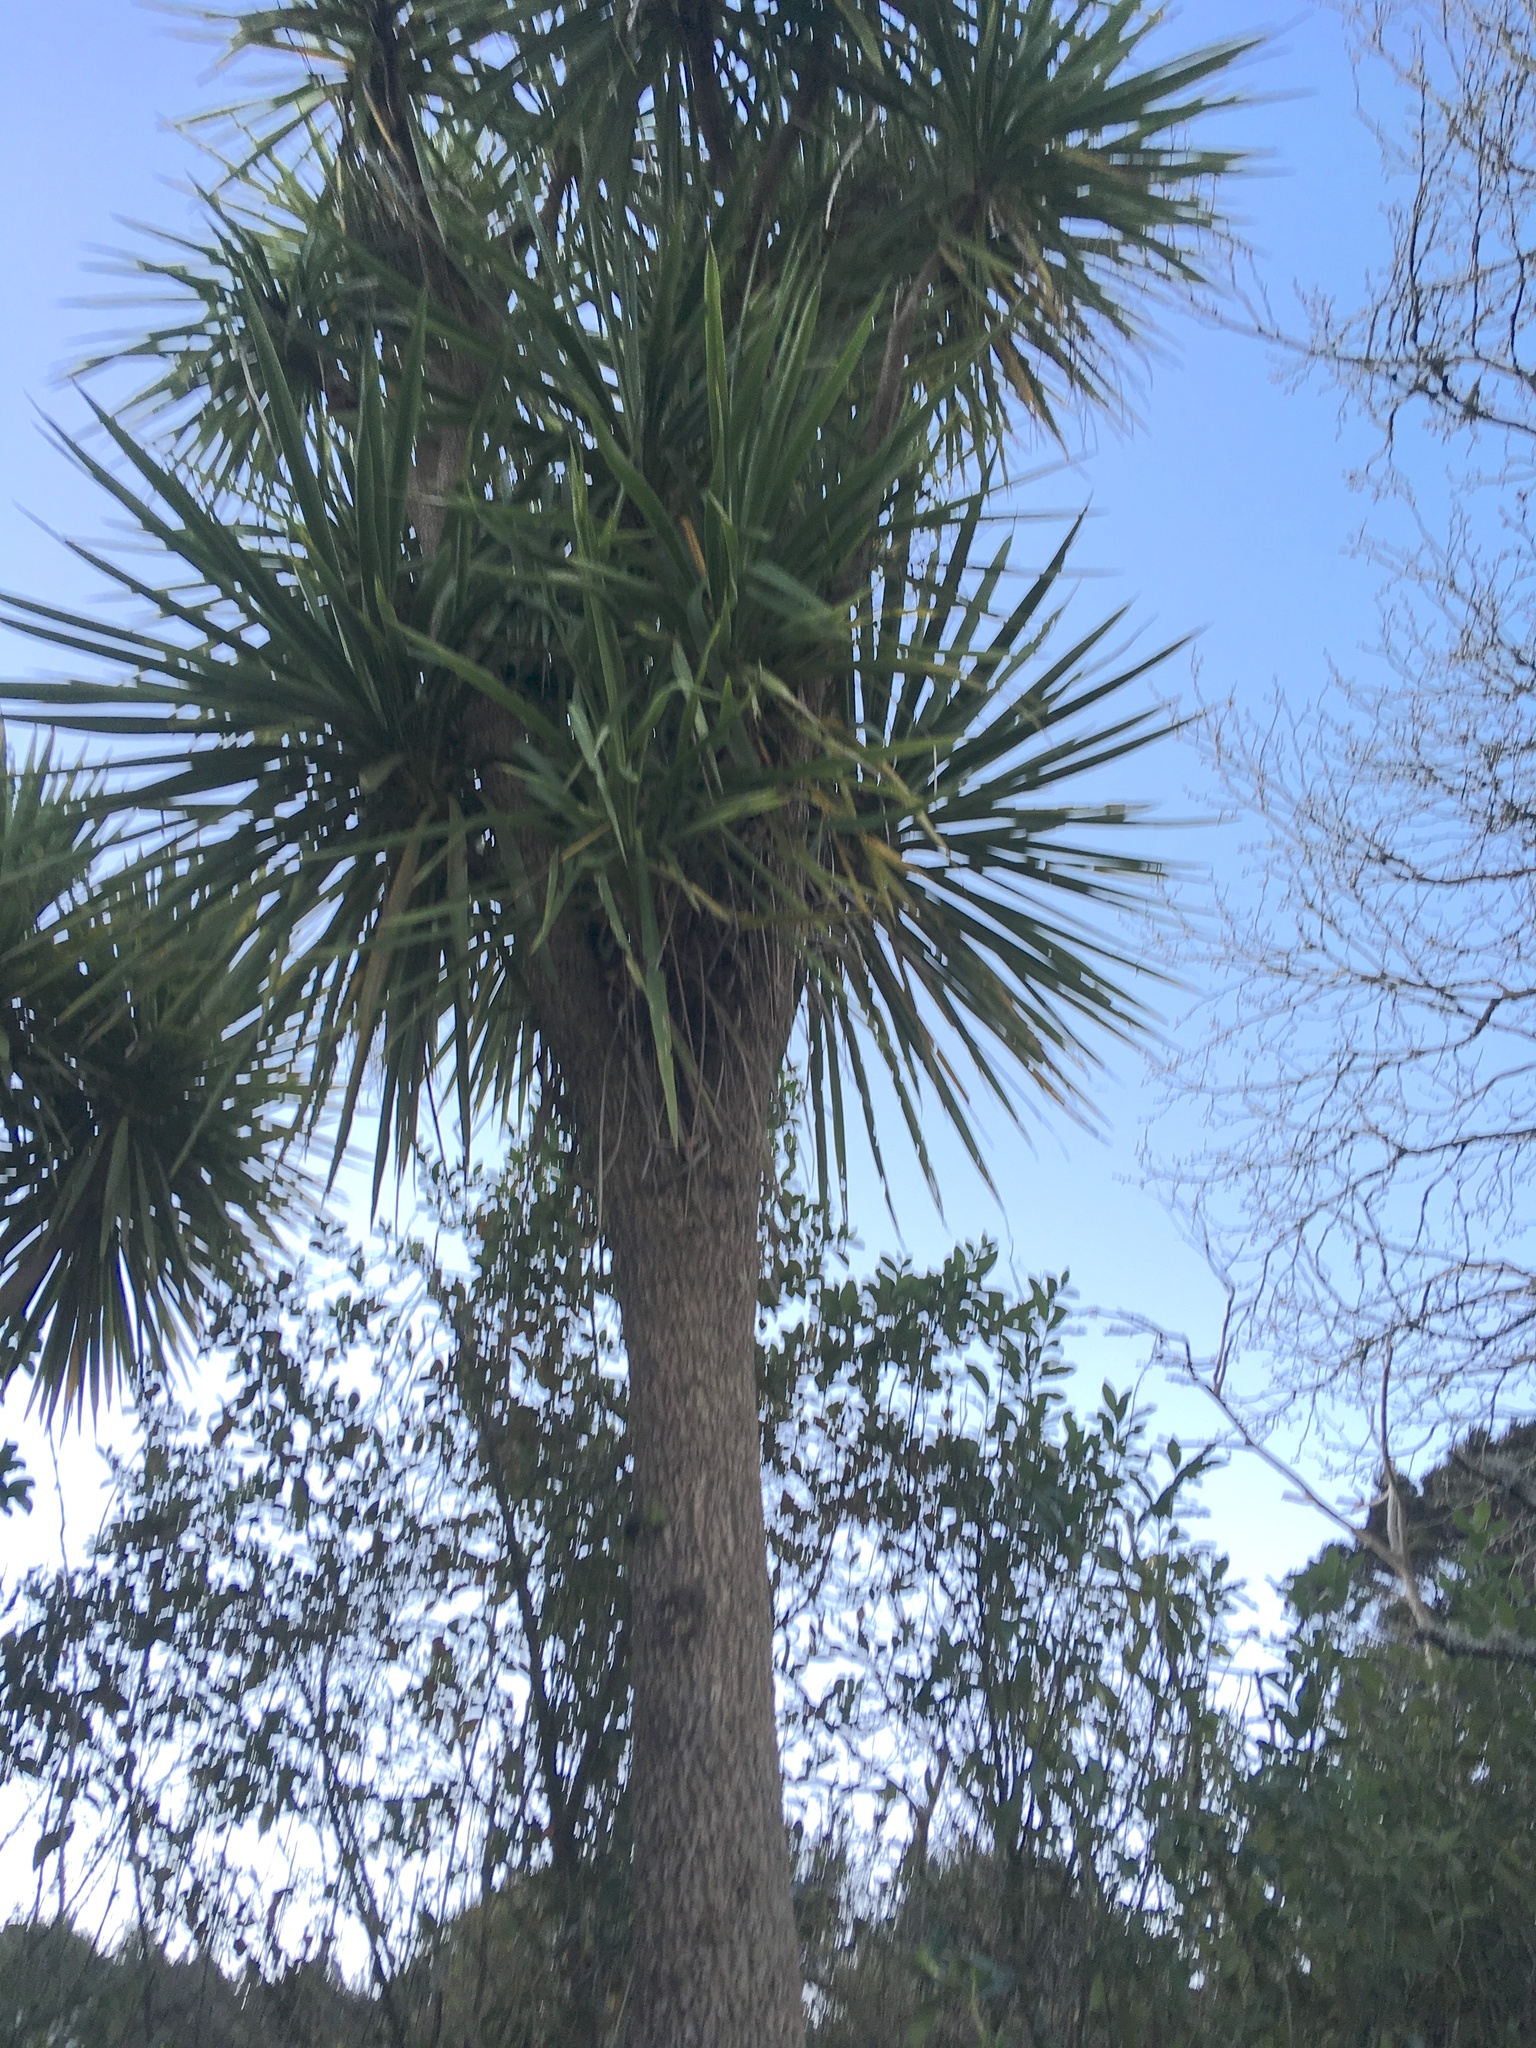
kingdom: Plantae
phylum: Tracheophyta
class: Liliopsida
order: Asparagales
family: Asparagaceae
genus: Cordyline
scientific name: Cordyline australis
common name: Cabbage-palm
